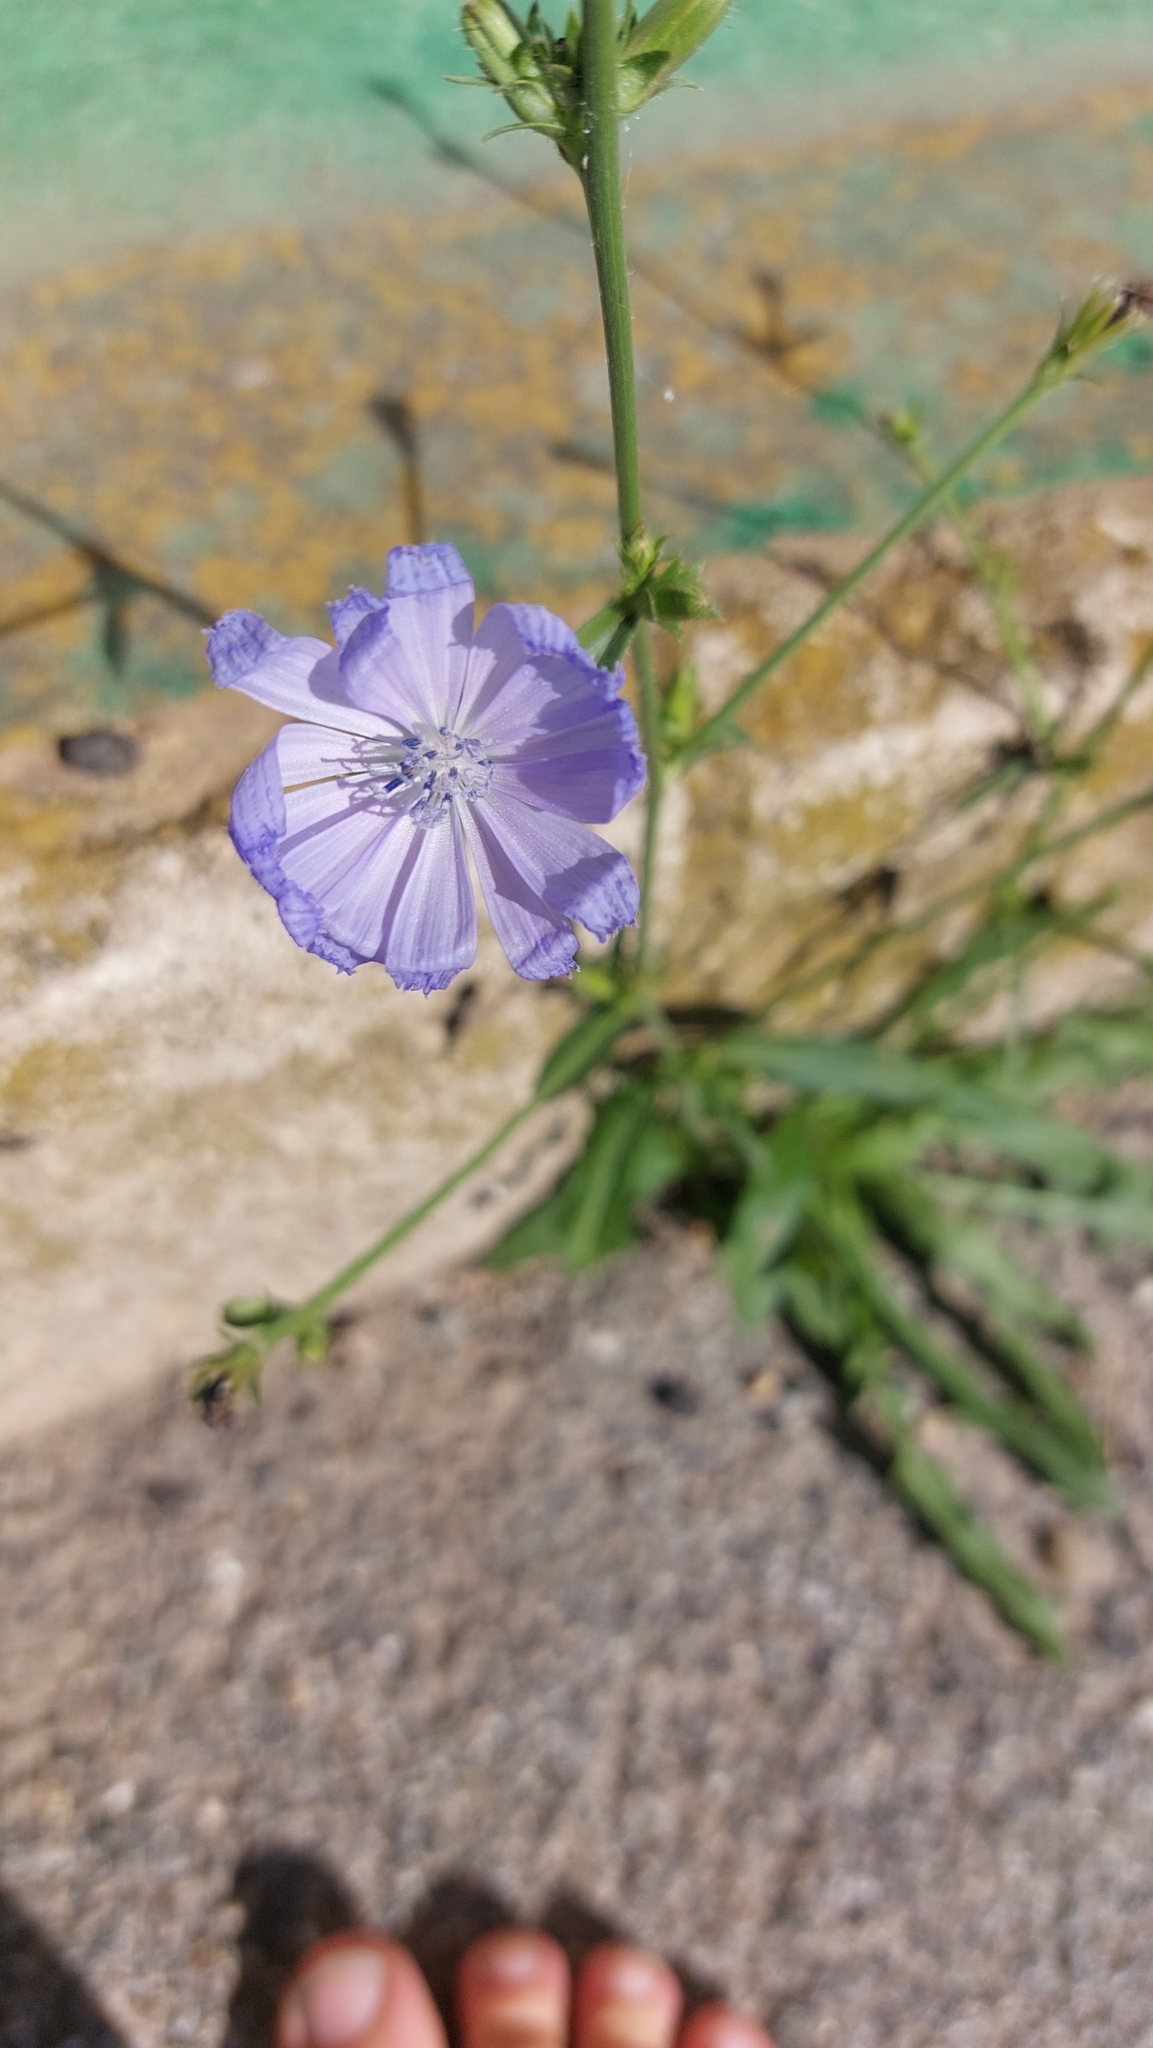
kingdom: Plantae
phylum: Tracheophyta
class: Magnoliopsida
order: Asterales
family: Asteraceae
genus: Cichorium
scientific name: Cichorium intybus
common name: Chicory
